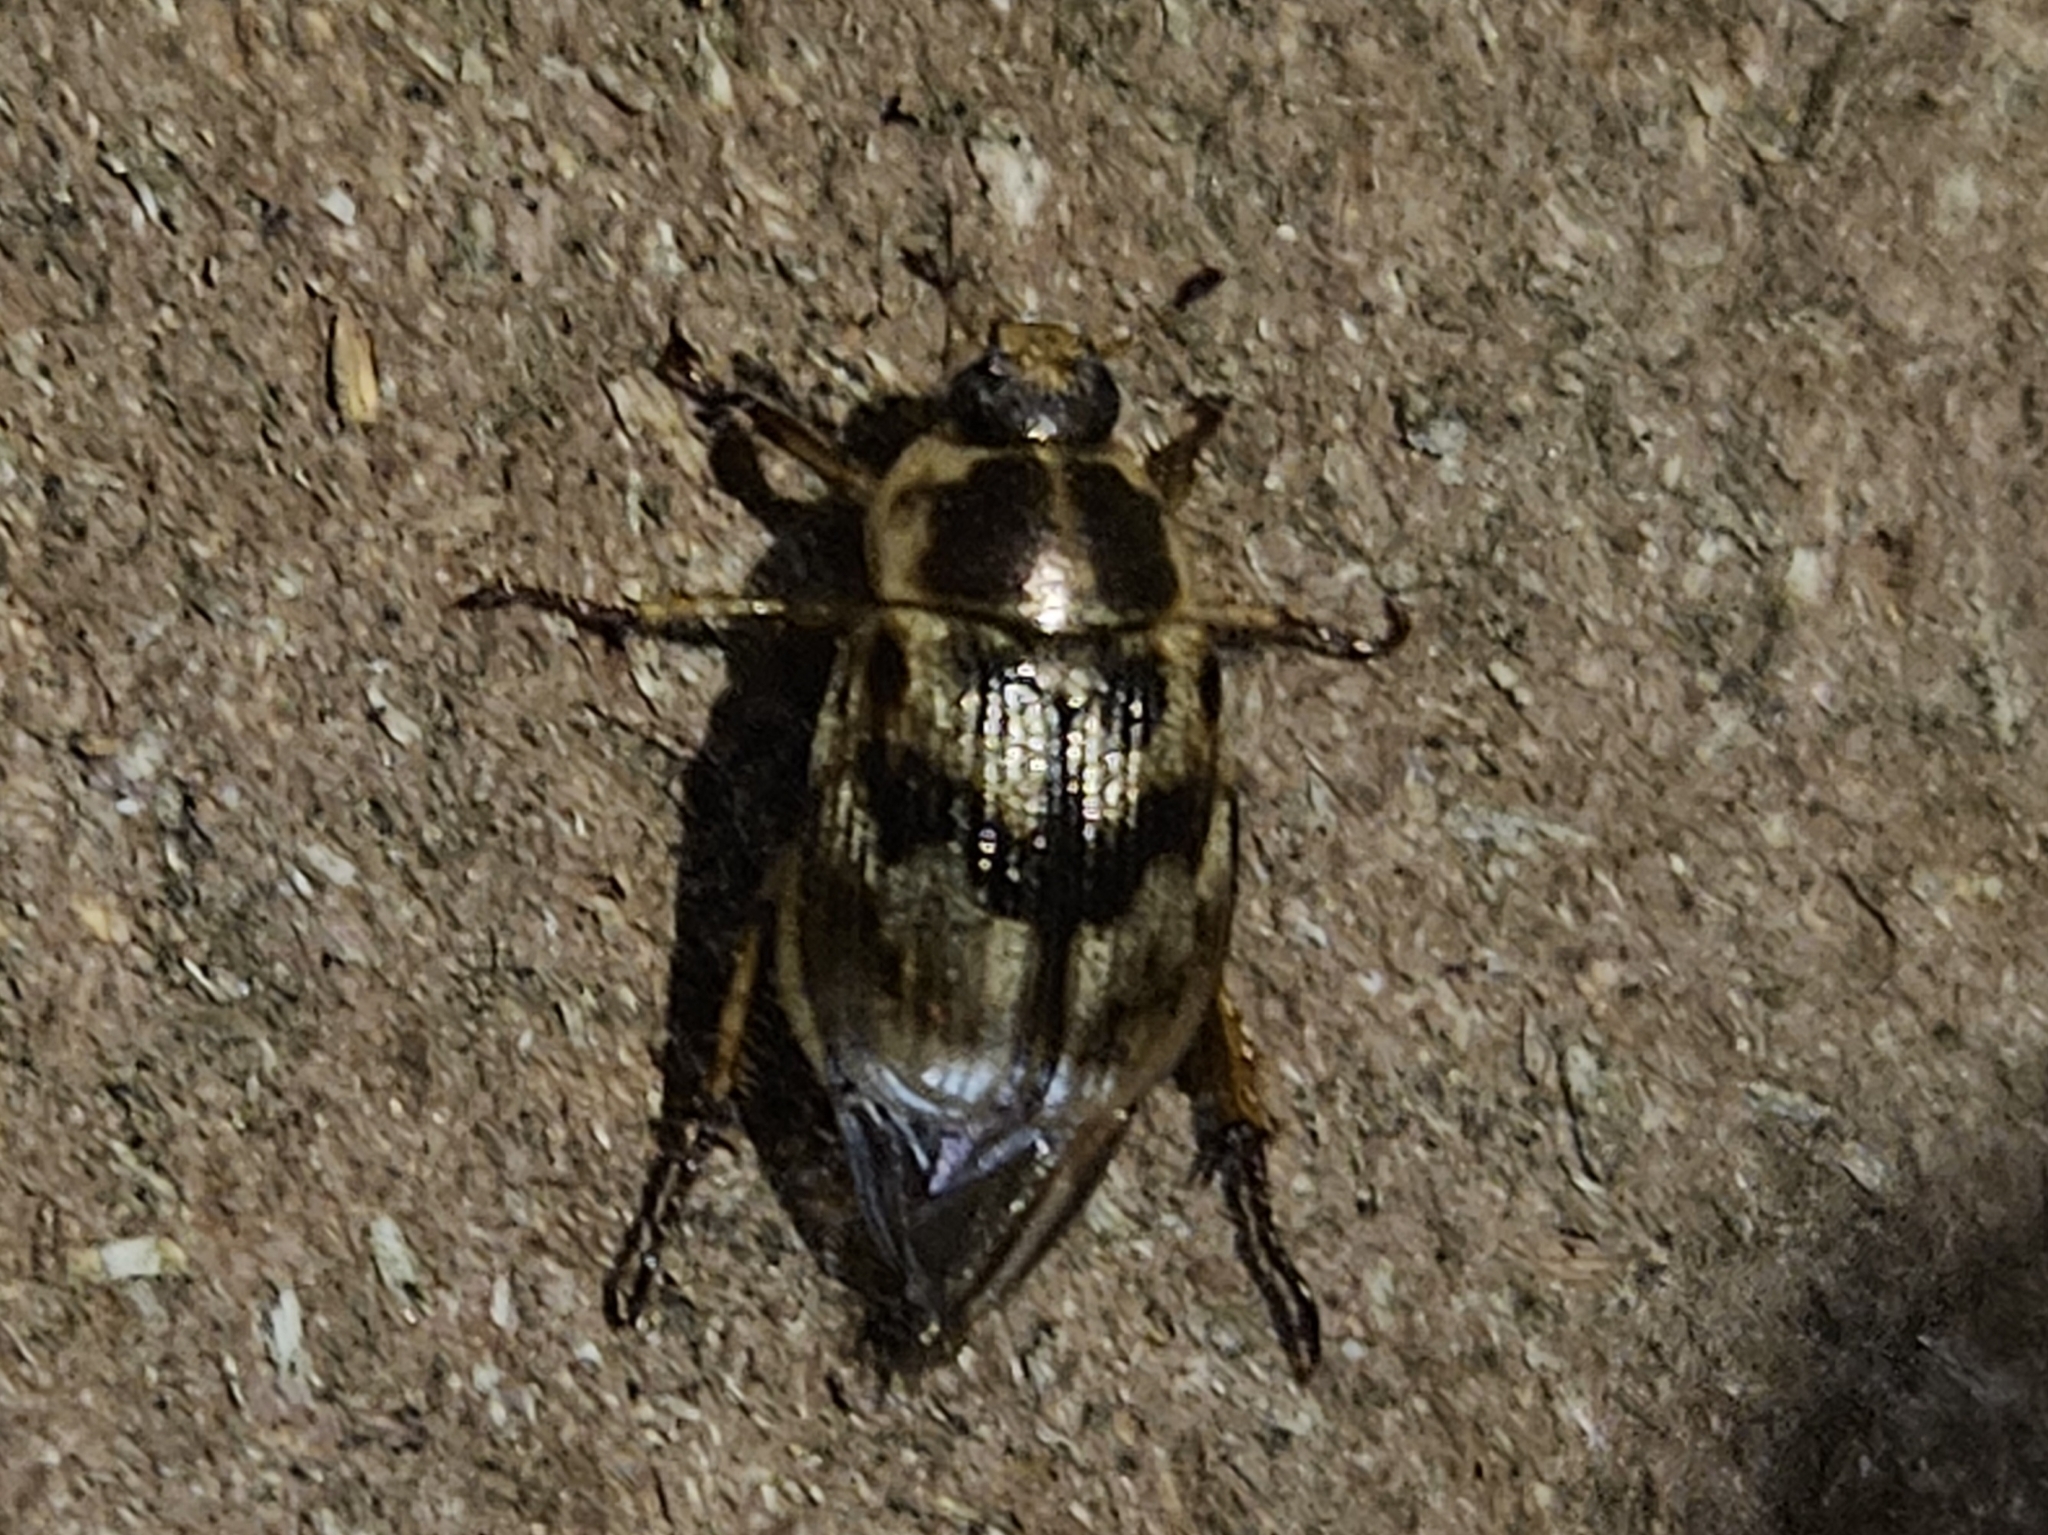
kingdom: Animalia
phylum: Arthropoda
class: Insecta
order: Coleoptera
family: Scarabaeidae
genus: Exomala
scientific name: Exomala orientalis
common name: Oriental beetle
